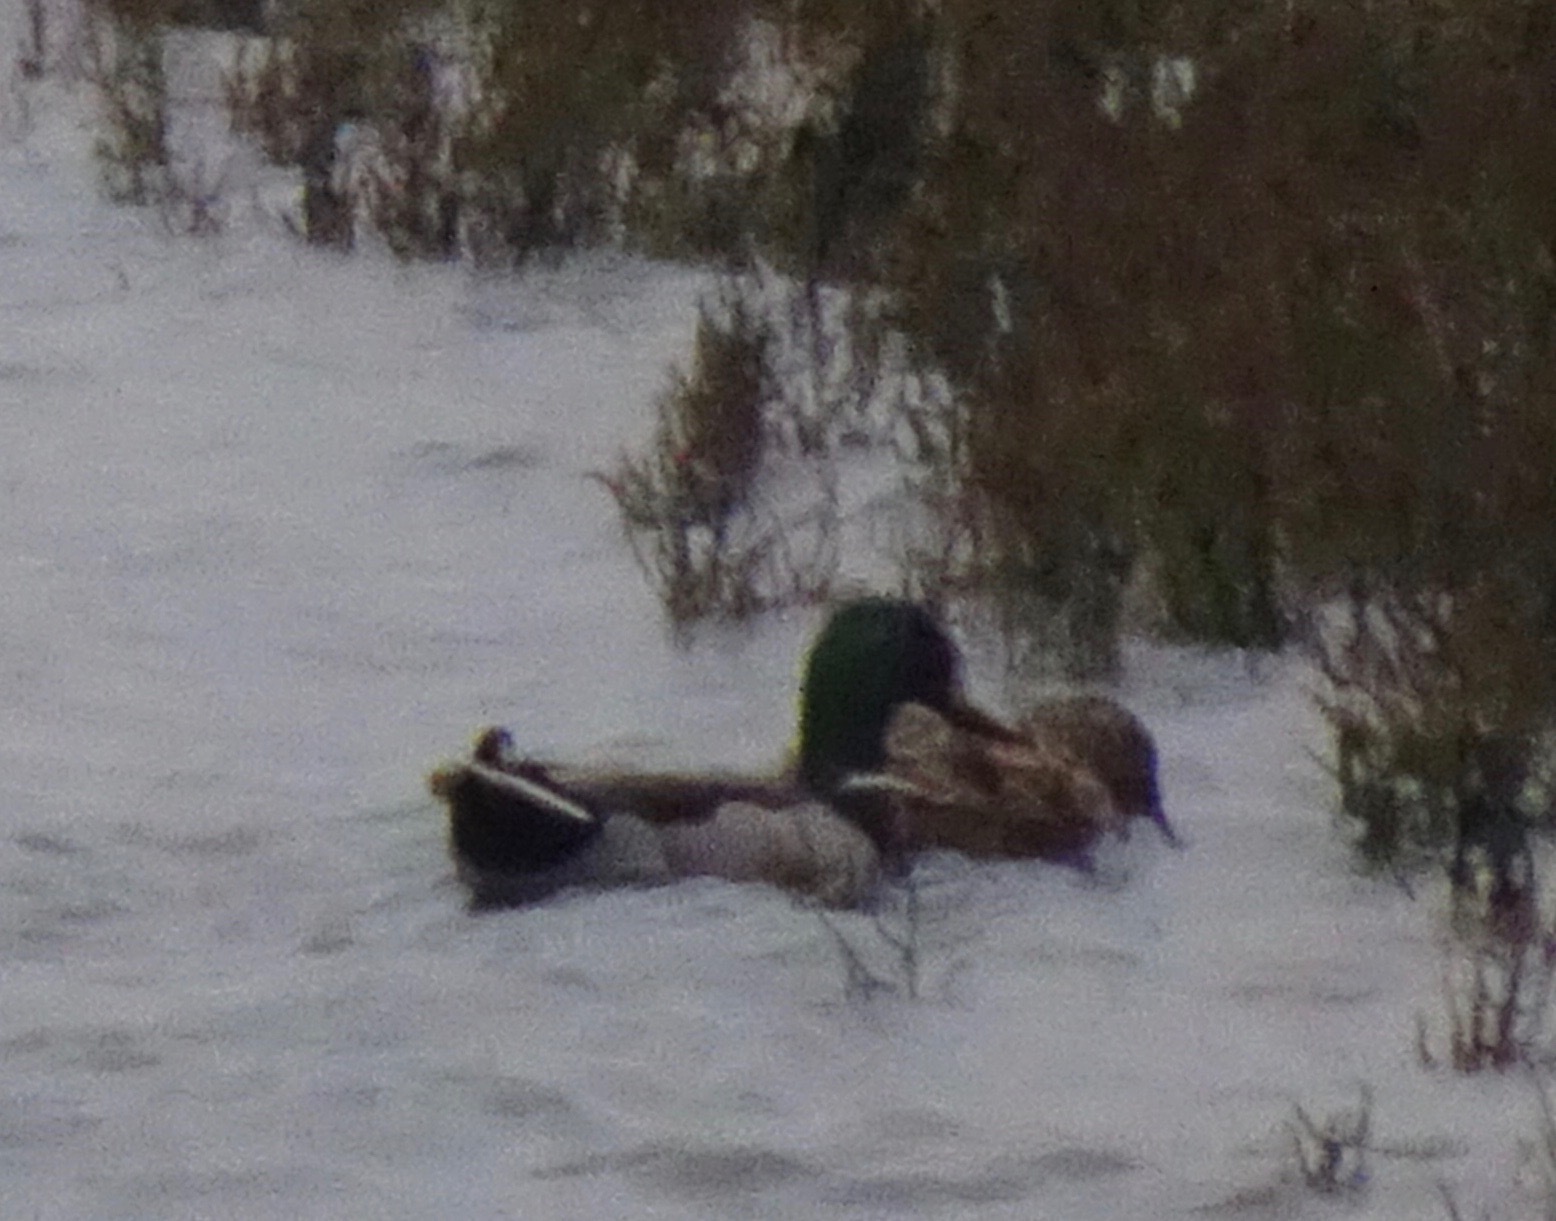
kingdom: Animalia
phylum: Chordata
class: Aves
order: Anseriformes
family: Anatidae
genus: Anas
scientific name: Anas platyrhynchos
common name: Mallard
